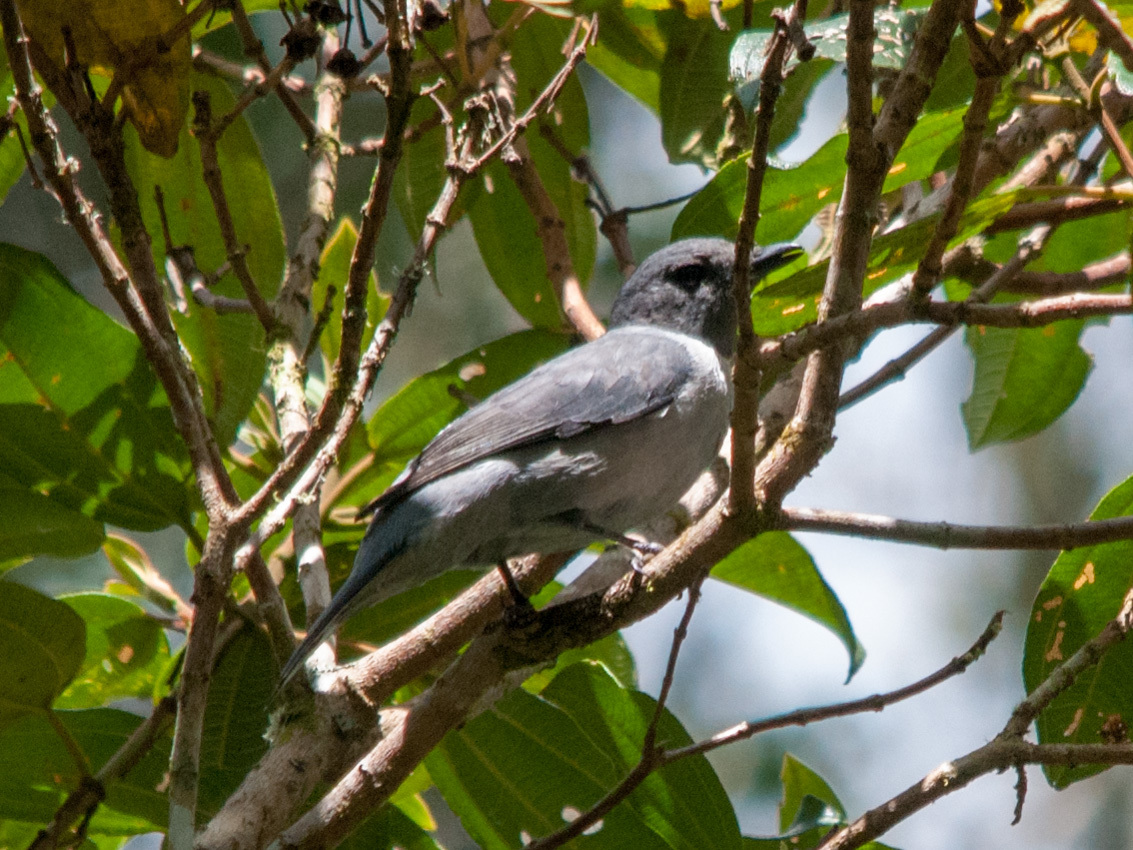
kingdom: Animalia
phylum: Chordata
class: Aves
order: Passeriformes
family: Campephagidae
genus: Coracina
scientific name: Coracina cinerea
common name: Madagascan cuckooshrike
